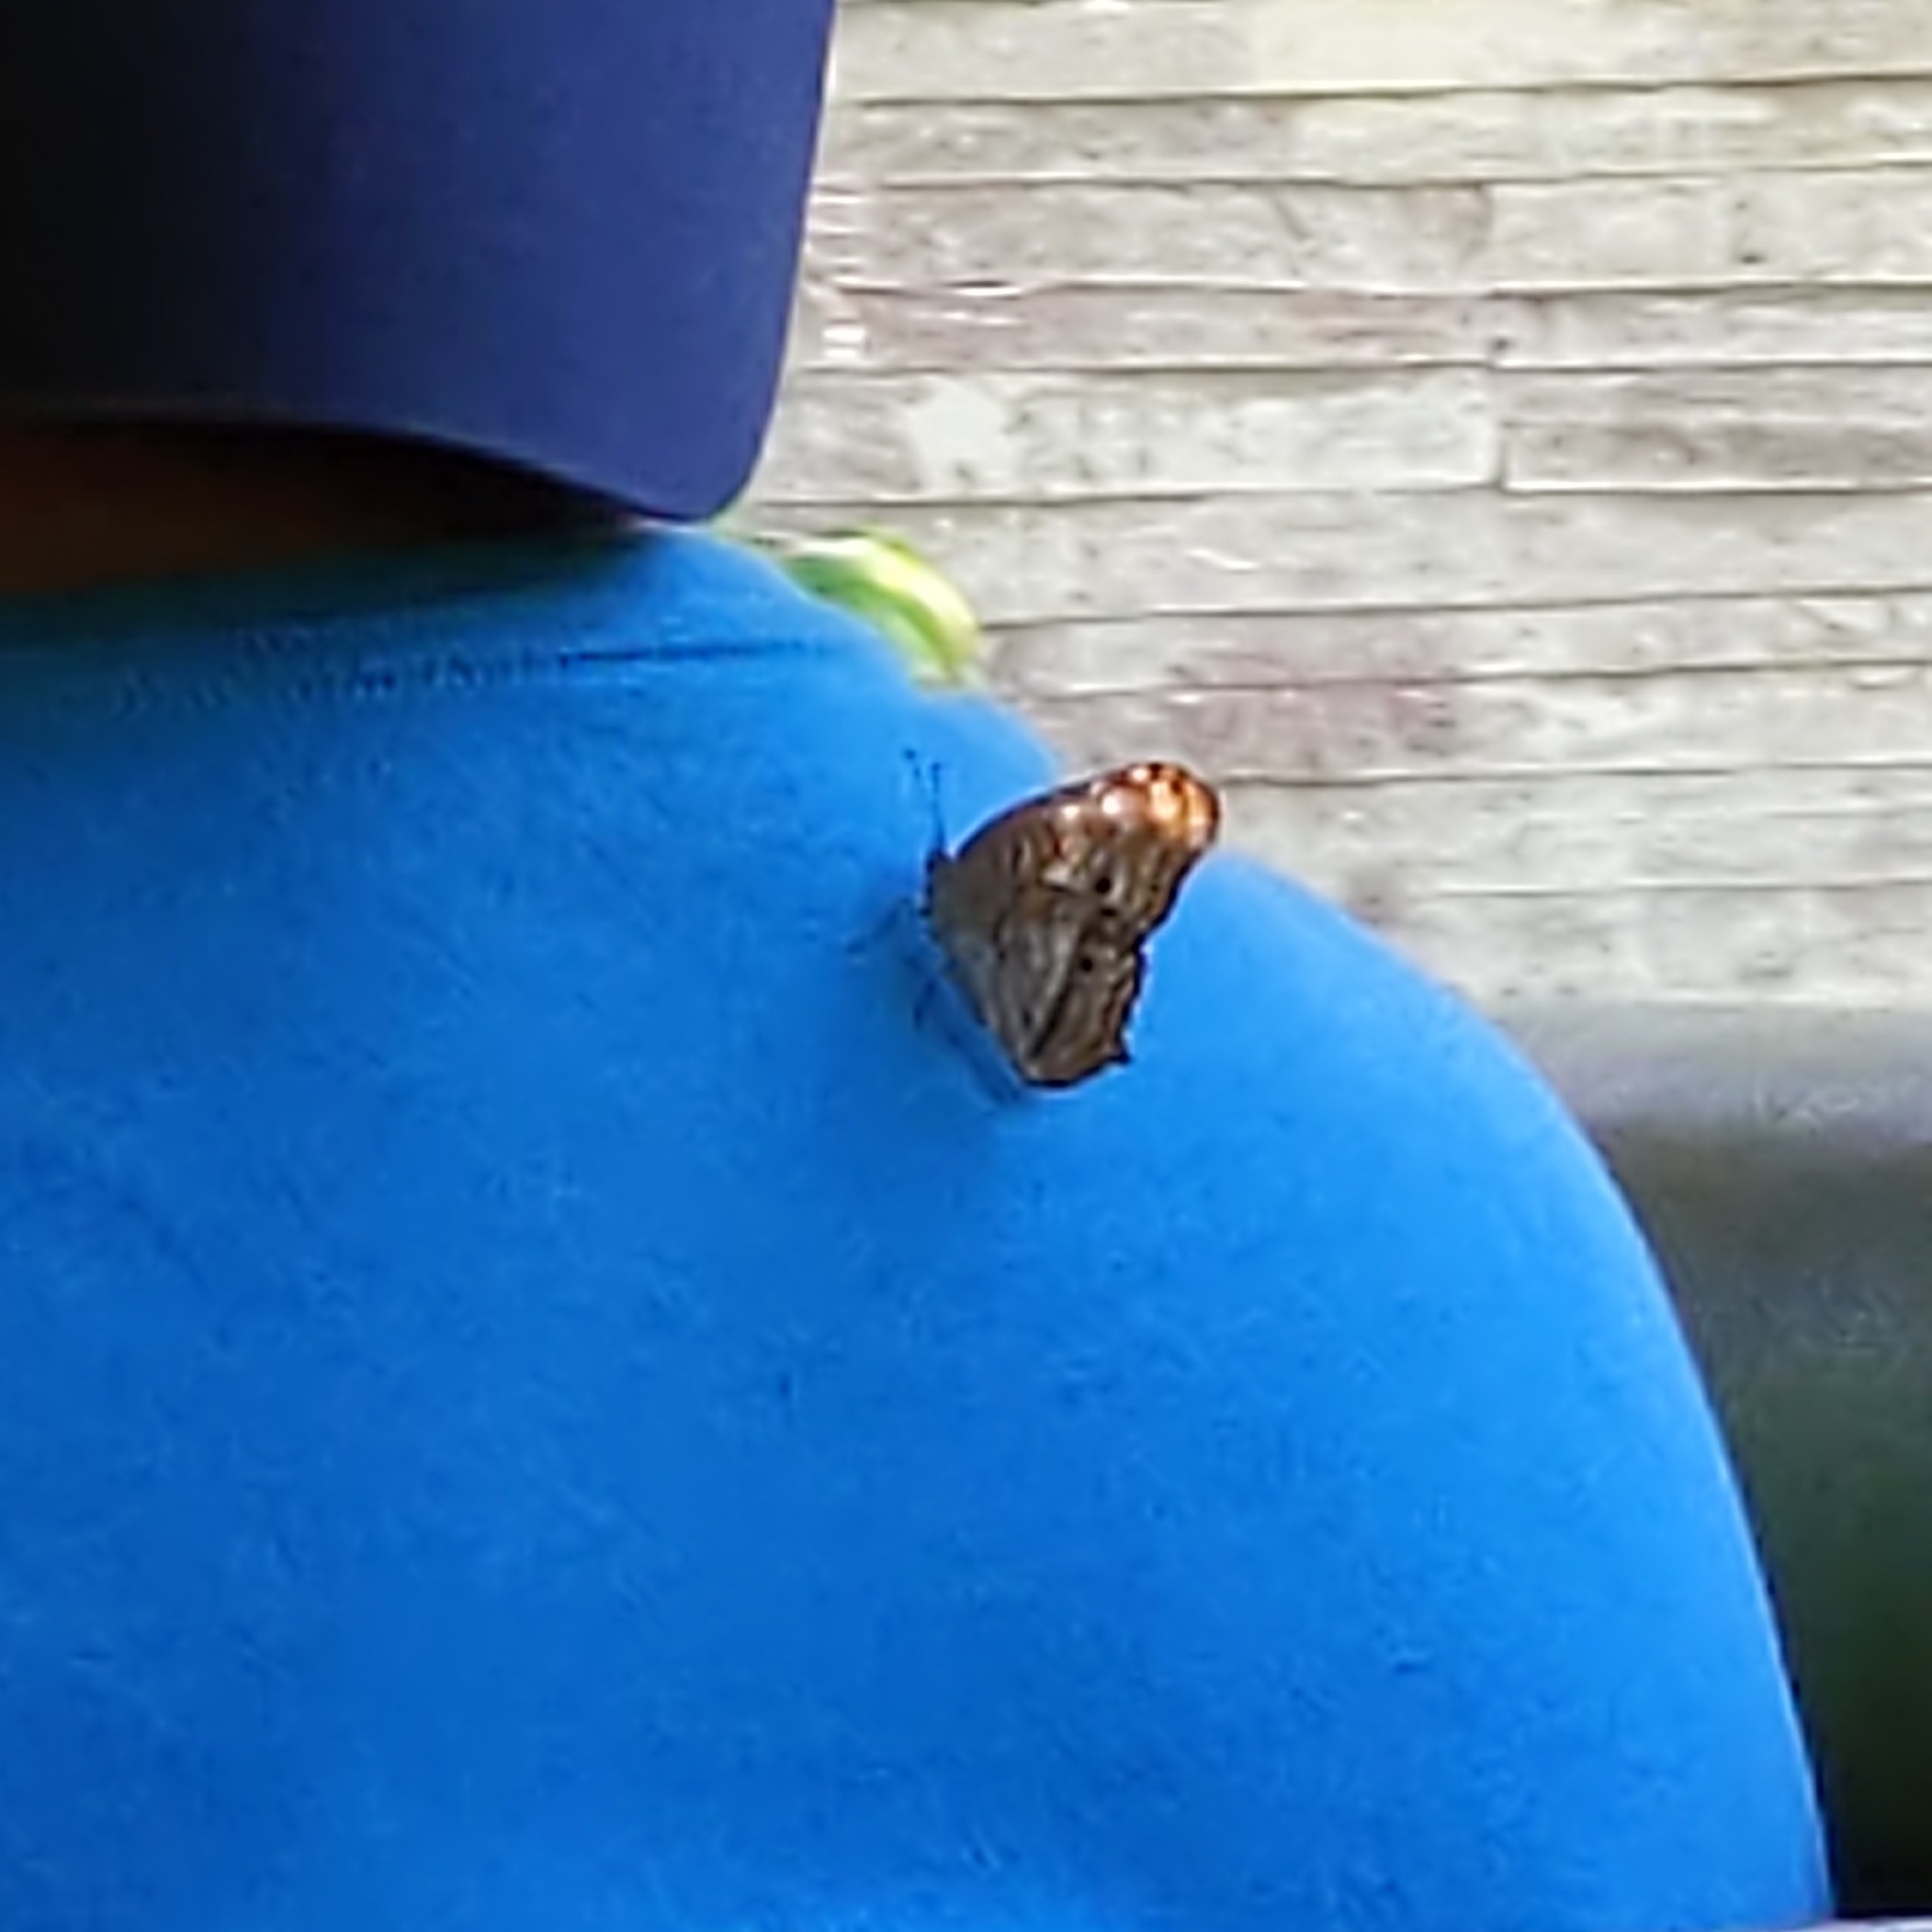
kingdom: Animalia
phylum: Arthropoda
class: Insecta
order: Lepidoptera
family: Nymphalidae
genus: Anartia
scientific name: Anartia jatrophae
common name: White peacock
